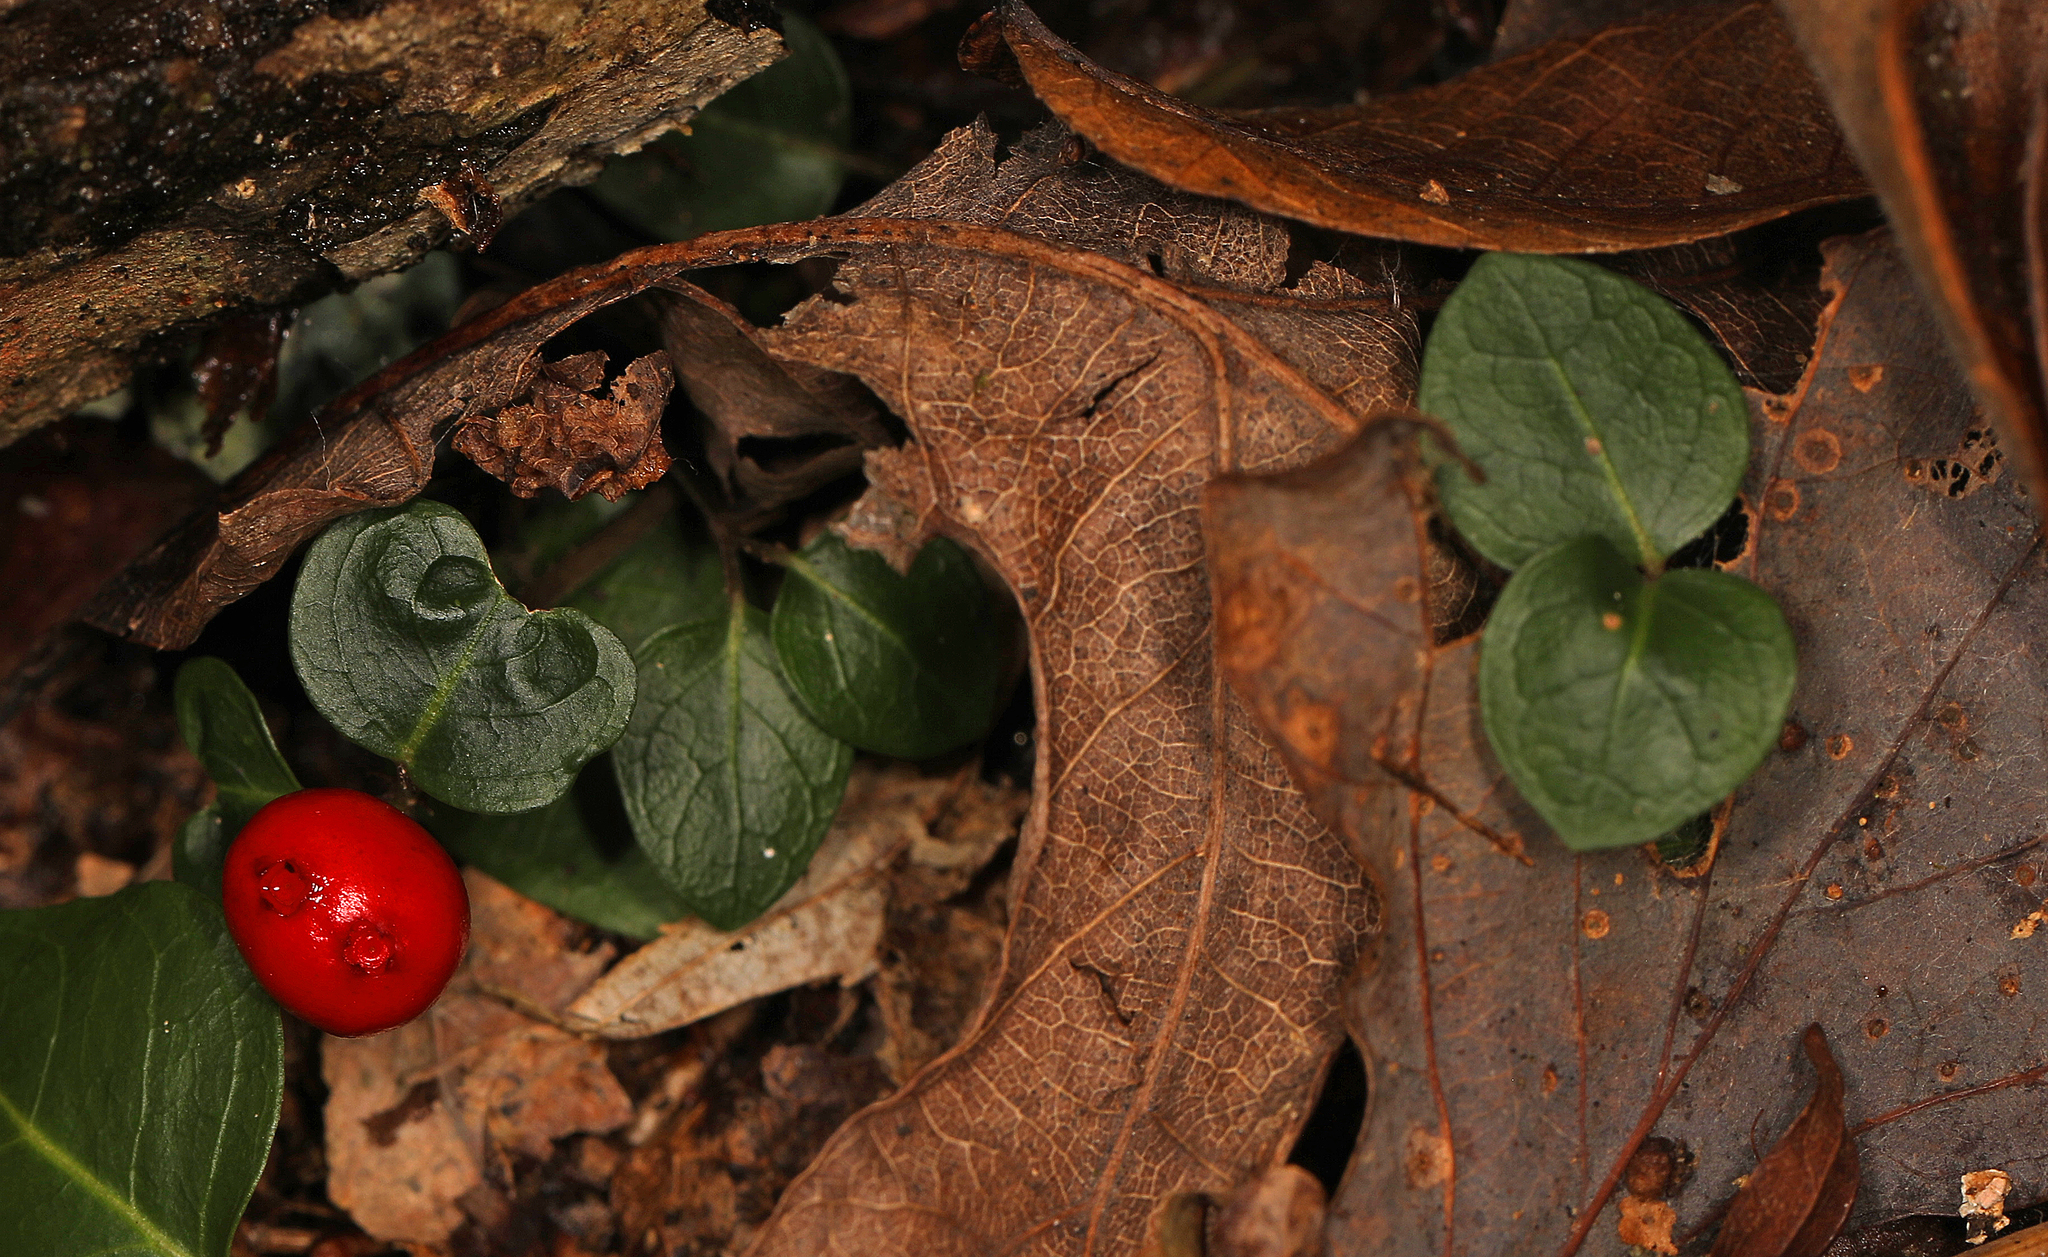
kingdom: Plantae
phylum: Tracheophyta
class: Magnoliopsida
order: Gentianales
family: Rubiaceae
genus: Mitchella
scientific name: Mitchella repens
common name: Partridge-berry
